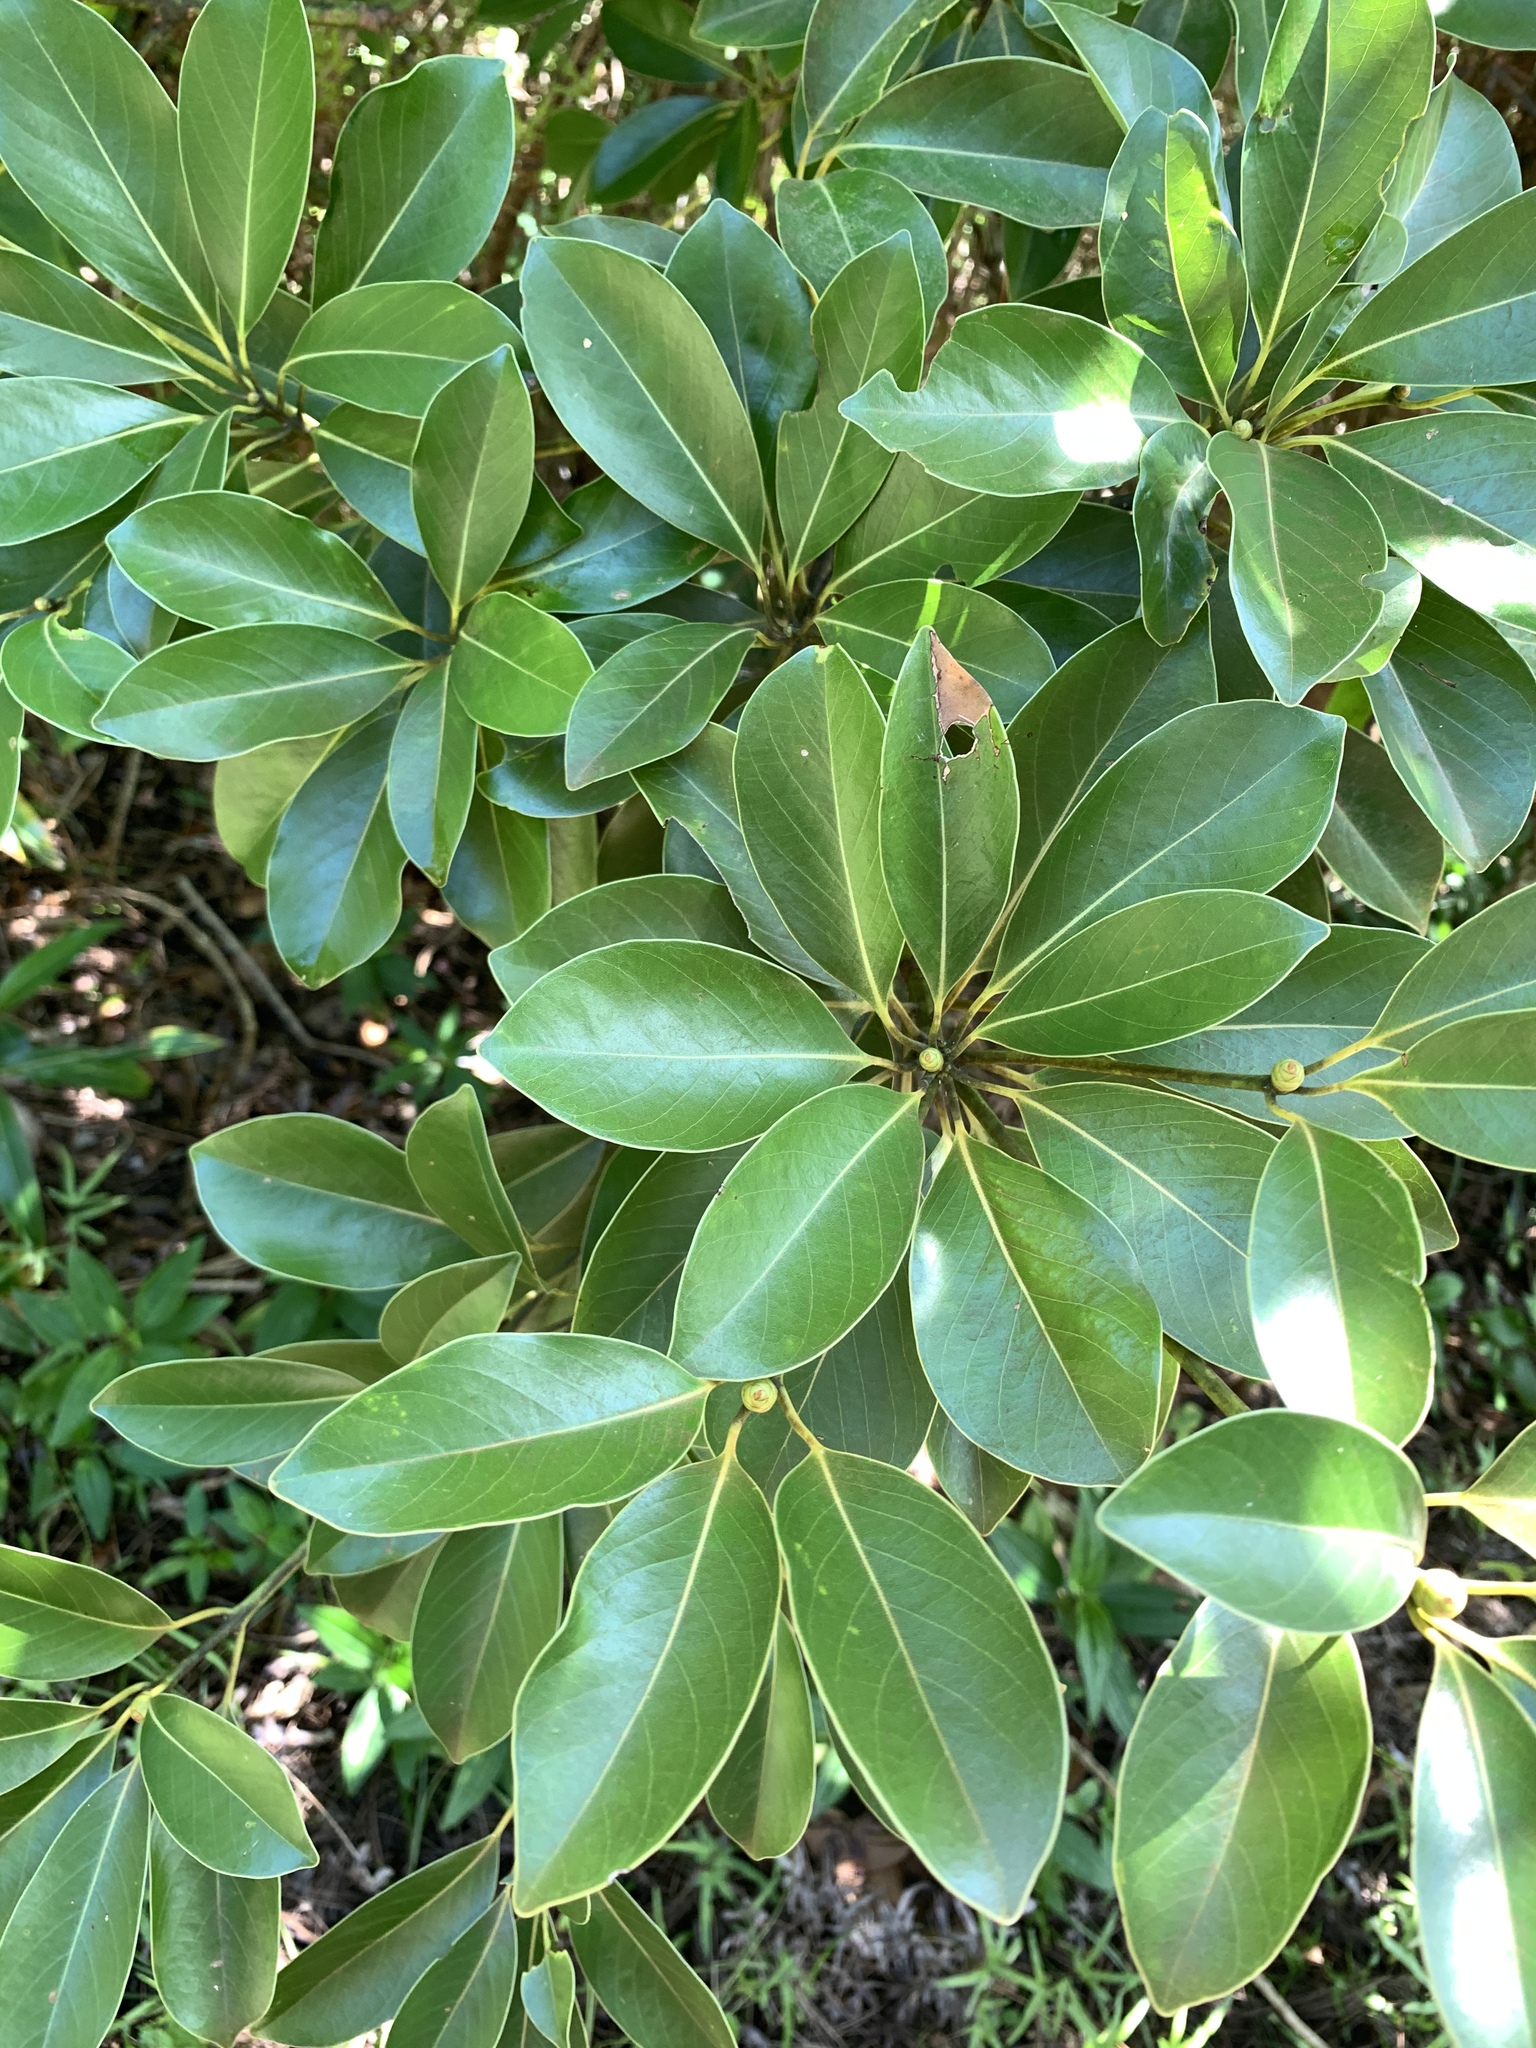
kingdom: Plantae
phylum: Tracheophyta
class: Magnoliopsida
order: Laurales
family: Lauraceae
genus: Machilus
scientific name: Machilus thunbergii
